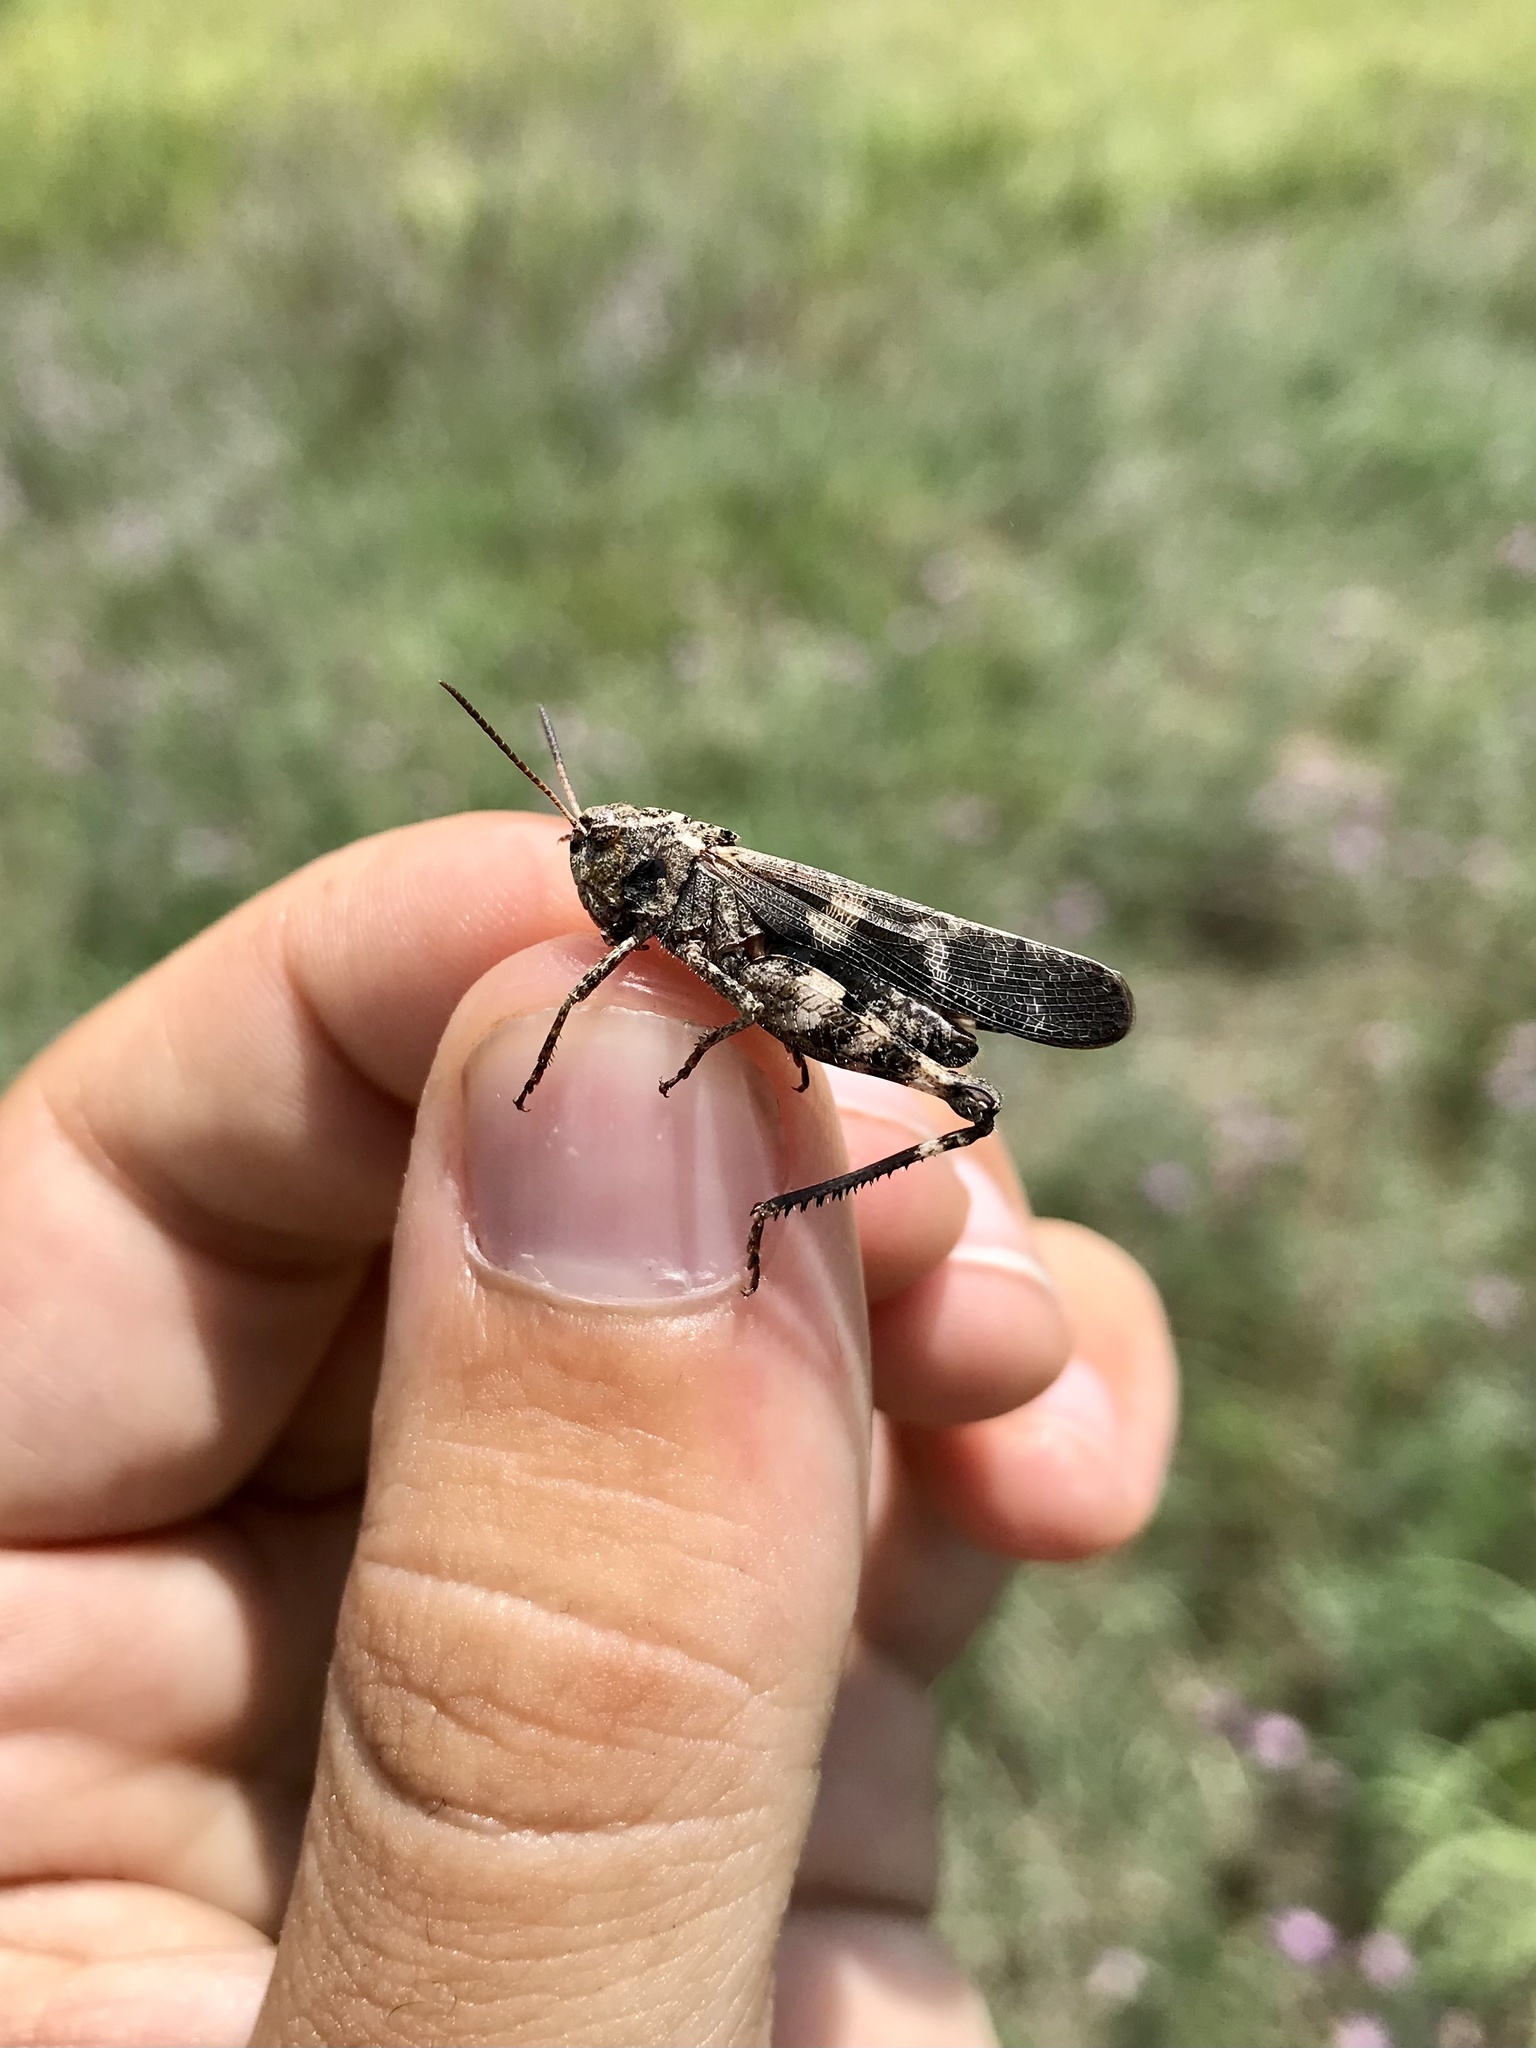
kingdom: Animalia
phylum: Arthropoda
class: Insecta
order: Orthoptera
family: Acrididae
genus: Encoptolophus
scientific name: Encoptolophus sordidus
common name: Dusky grasshopper
